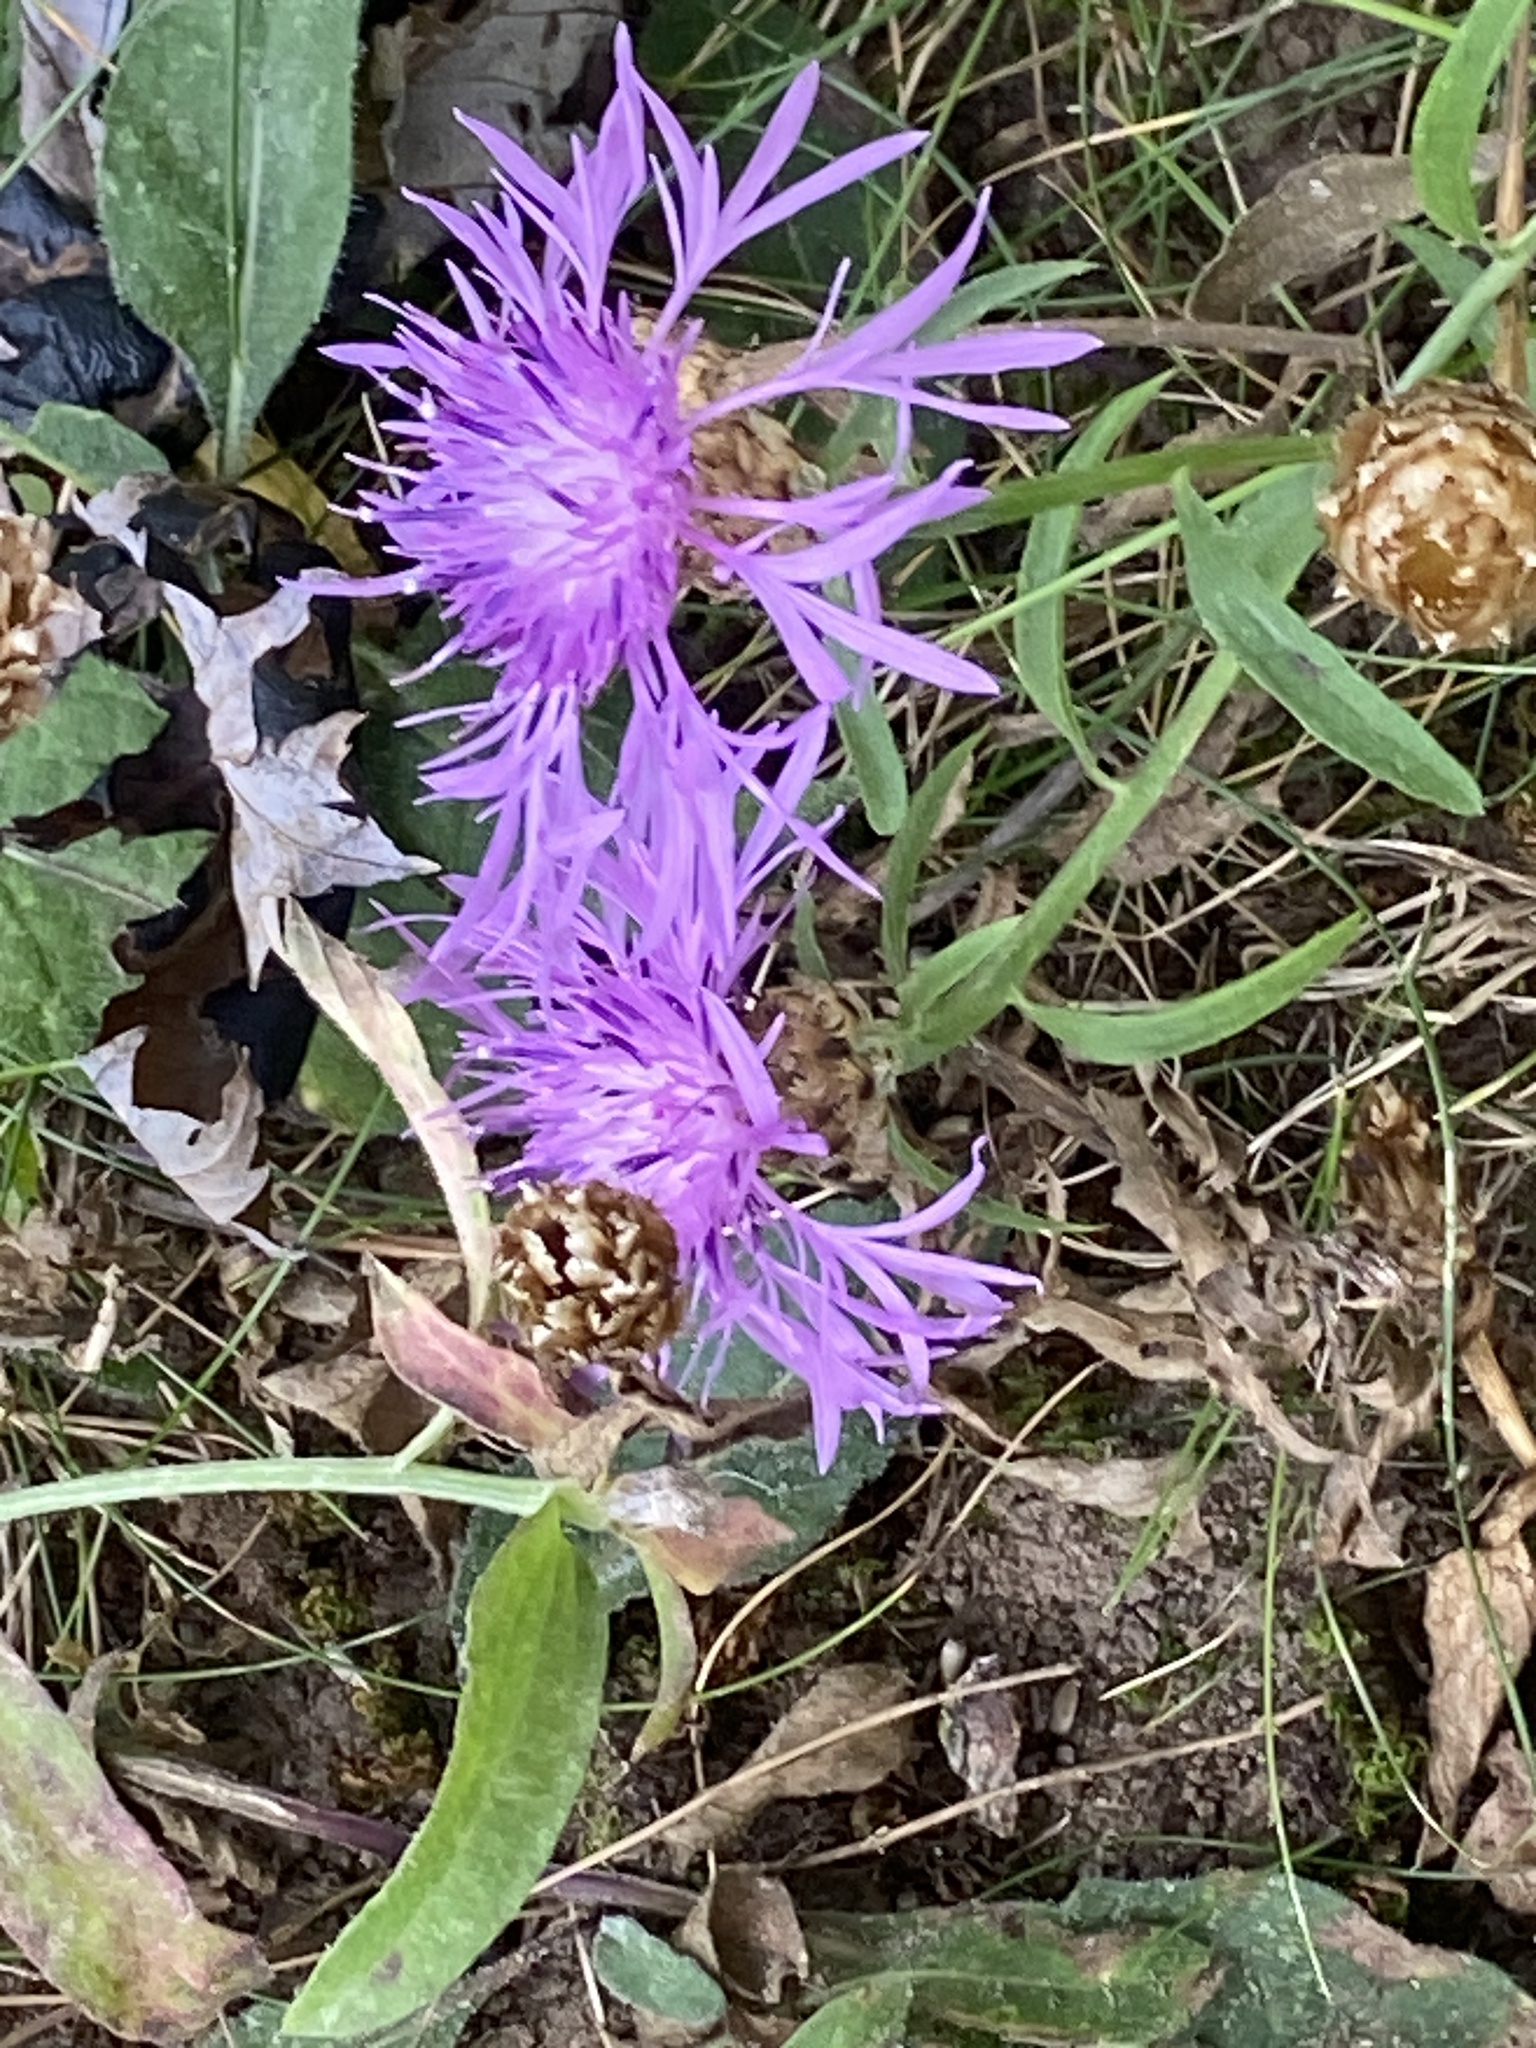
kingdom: Plantae
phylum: Tracheophyta
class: Magnoliopsida
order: Asterales
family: Asteraceae
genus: Centaurea
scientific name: Centaurea jacea
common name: Brown knapweed
